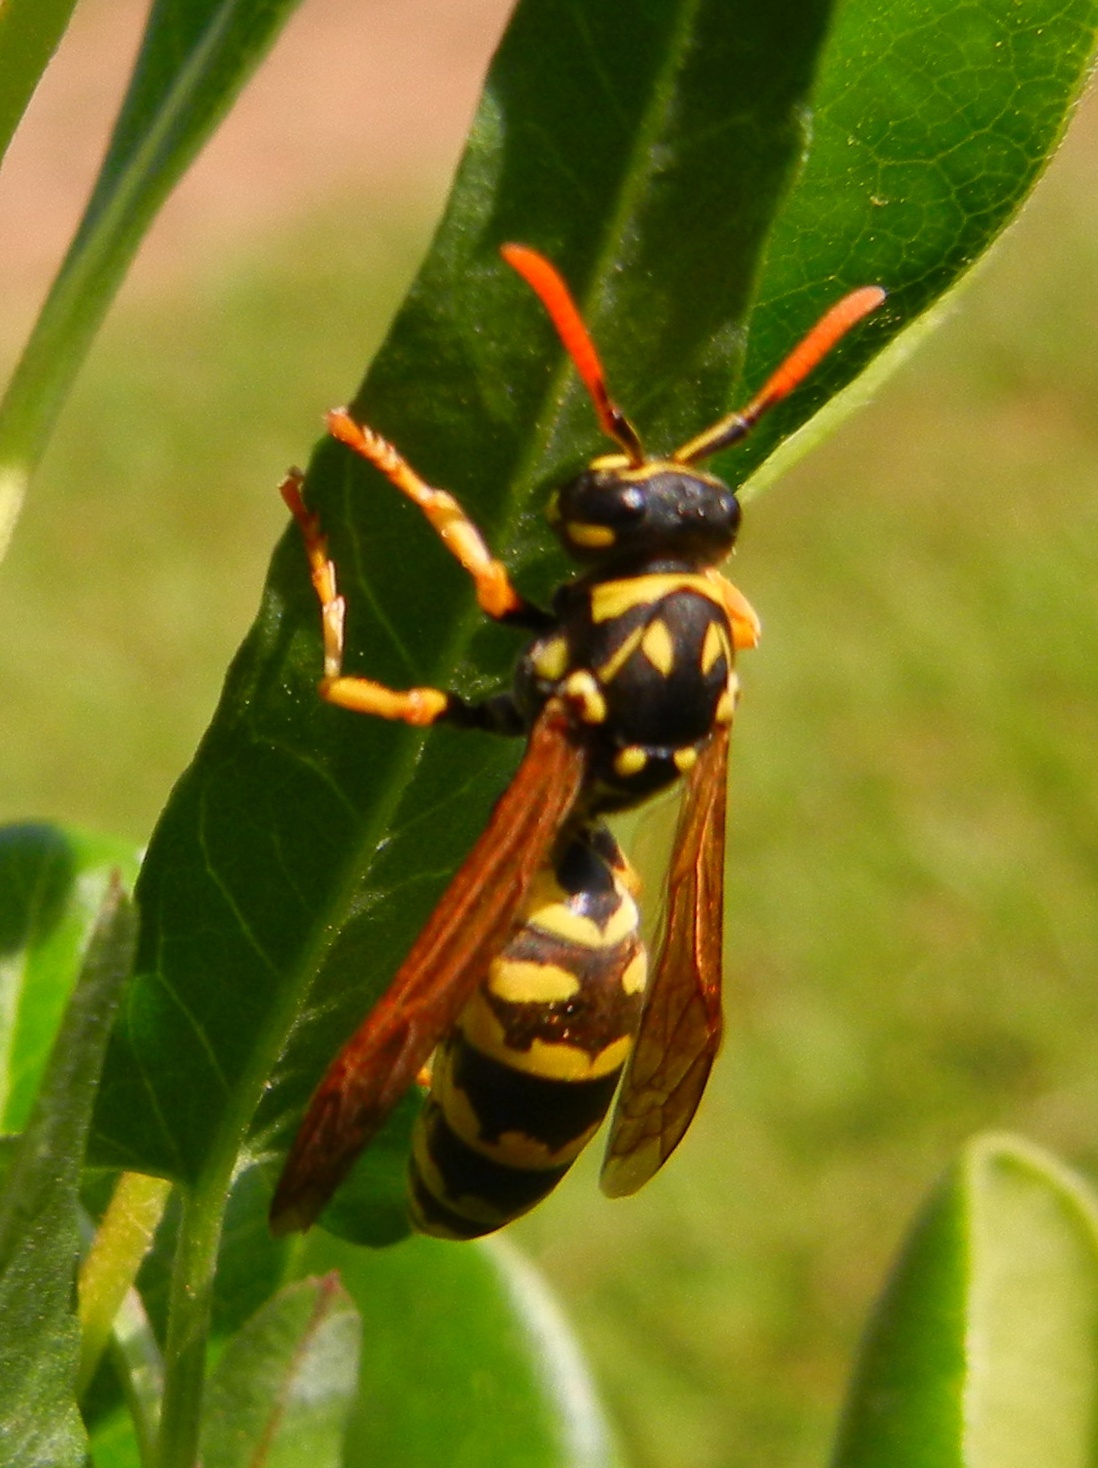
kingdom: Animalia
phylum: Arthropoda
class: Insecta
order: Hymenoptera
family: Eumenidae
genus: Polistes
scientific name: Polistes dominula
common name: Paper wasp
